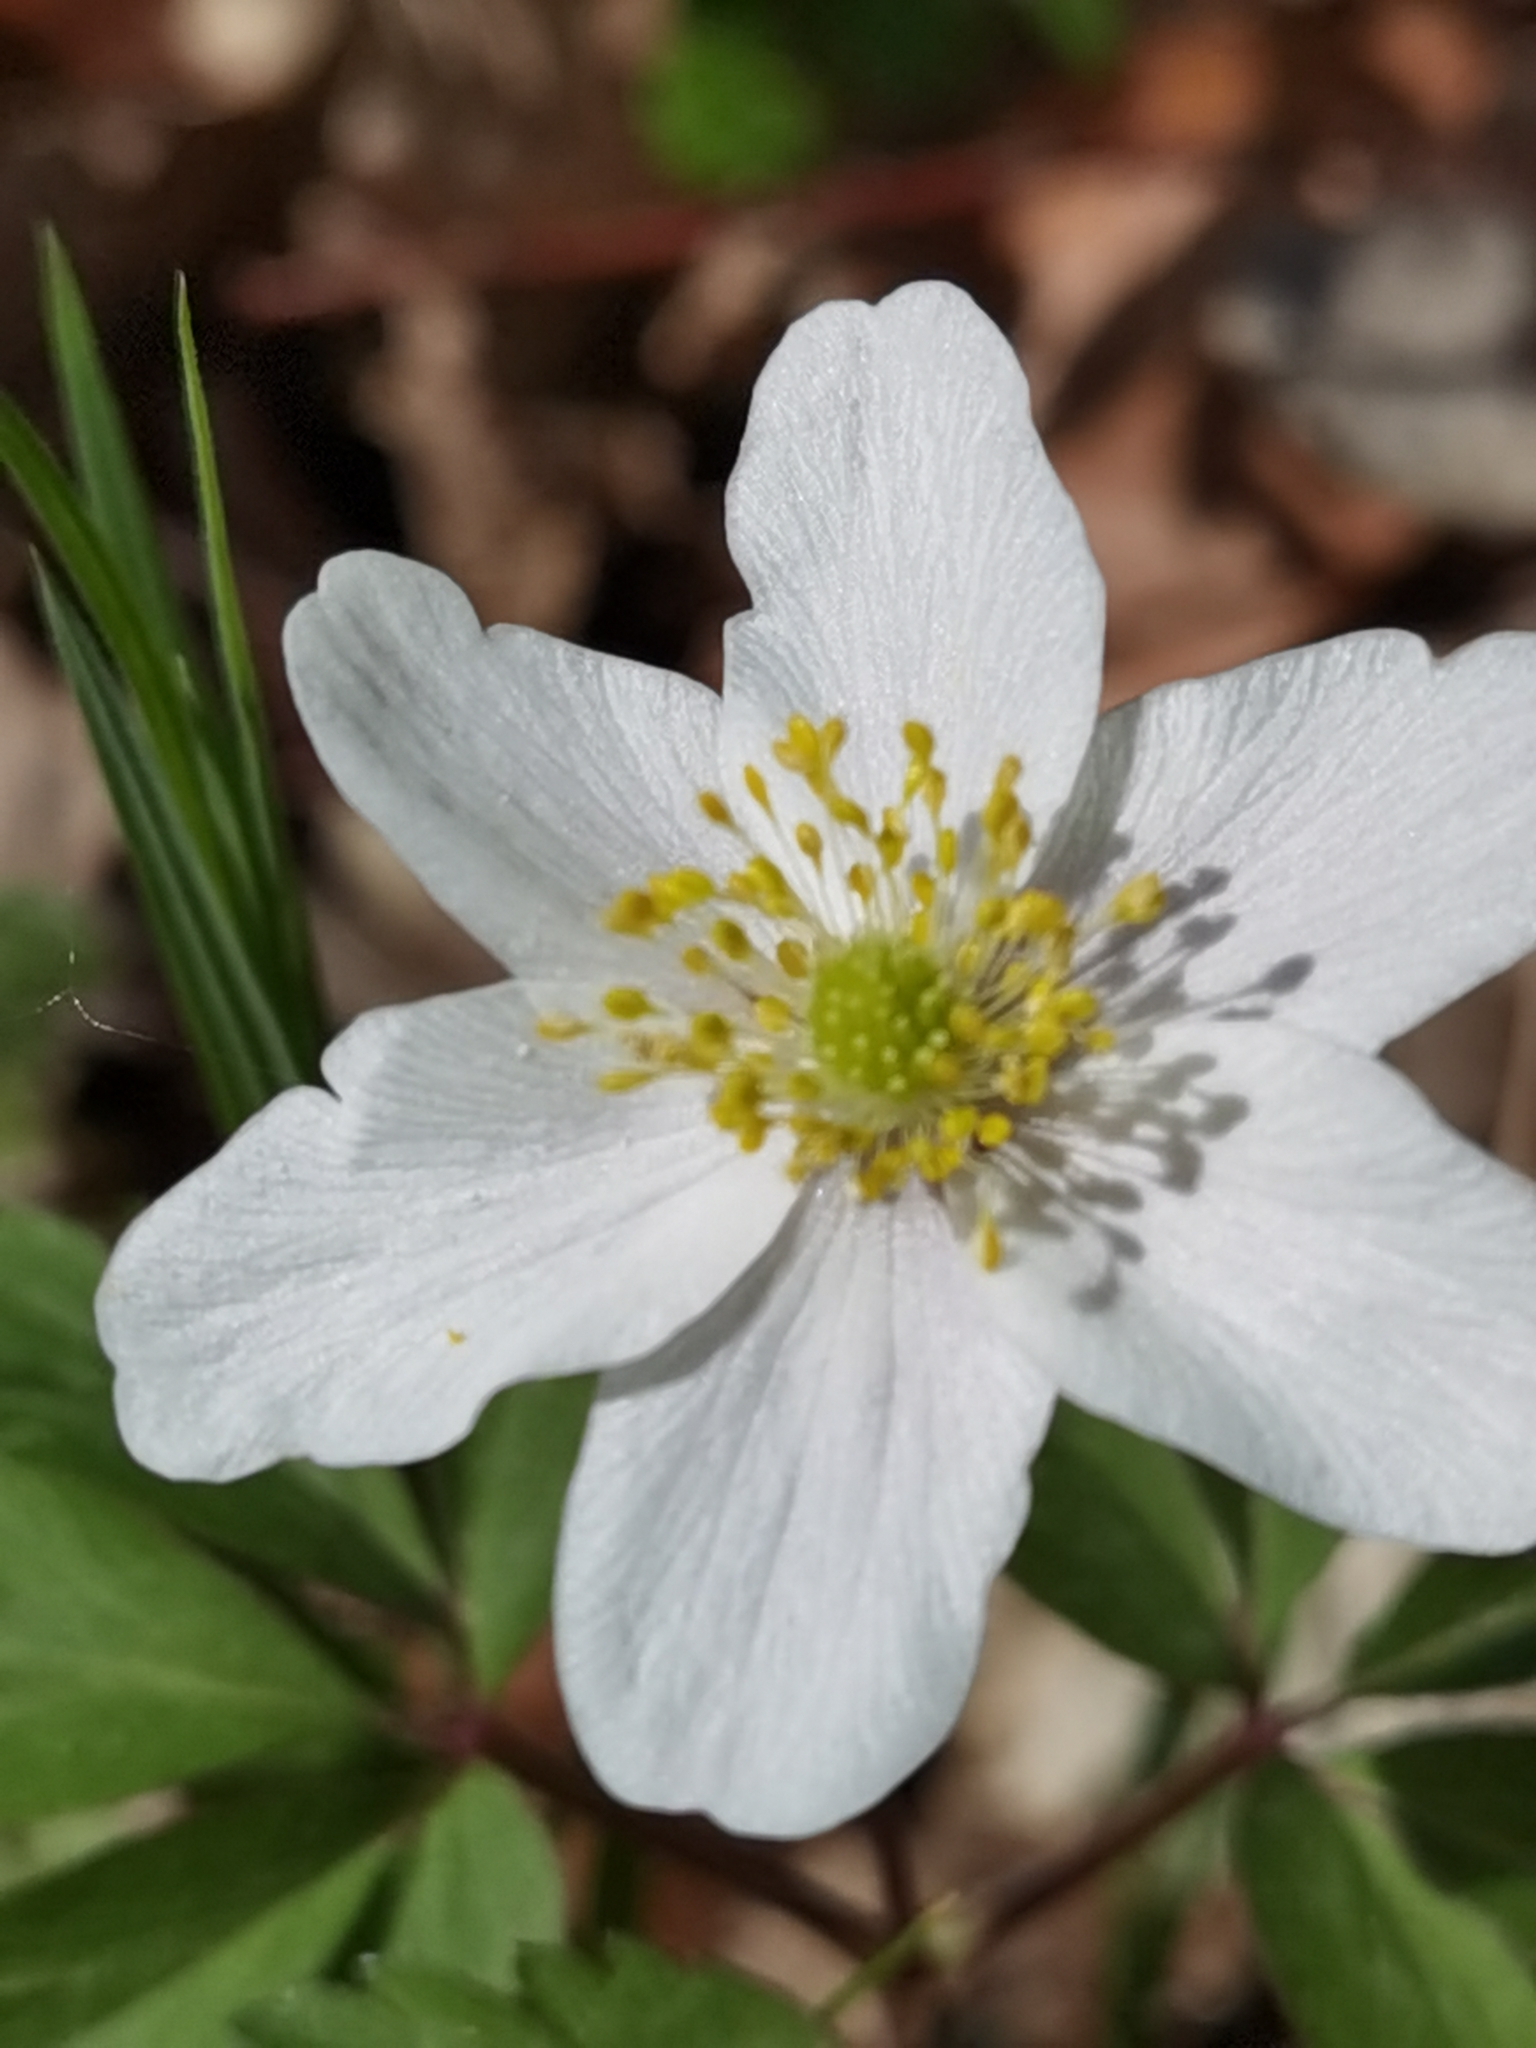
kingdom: Plantae
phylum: Tracheophyta
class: Magnoliopsida
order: Ranunculales
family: Ranunculaceae
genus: Anemone
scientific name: Anemone nemorosa
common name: Wood anemone
